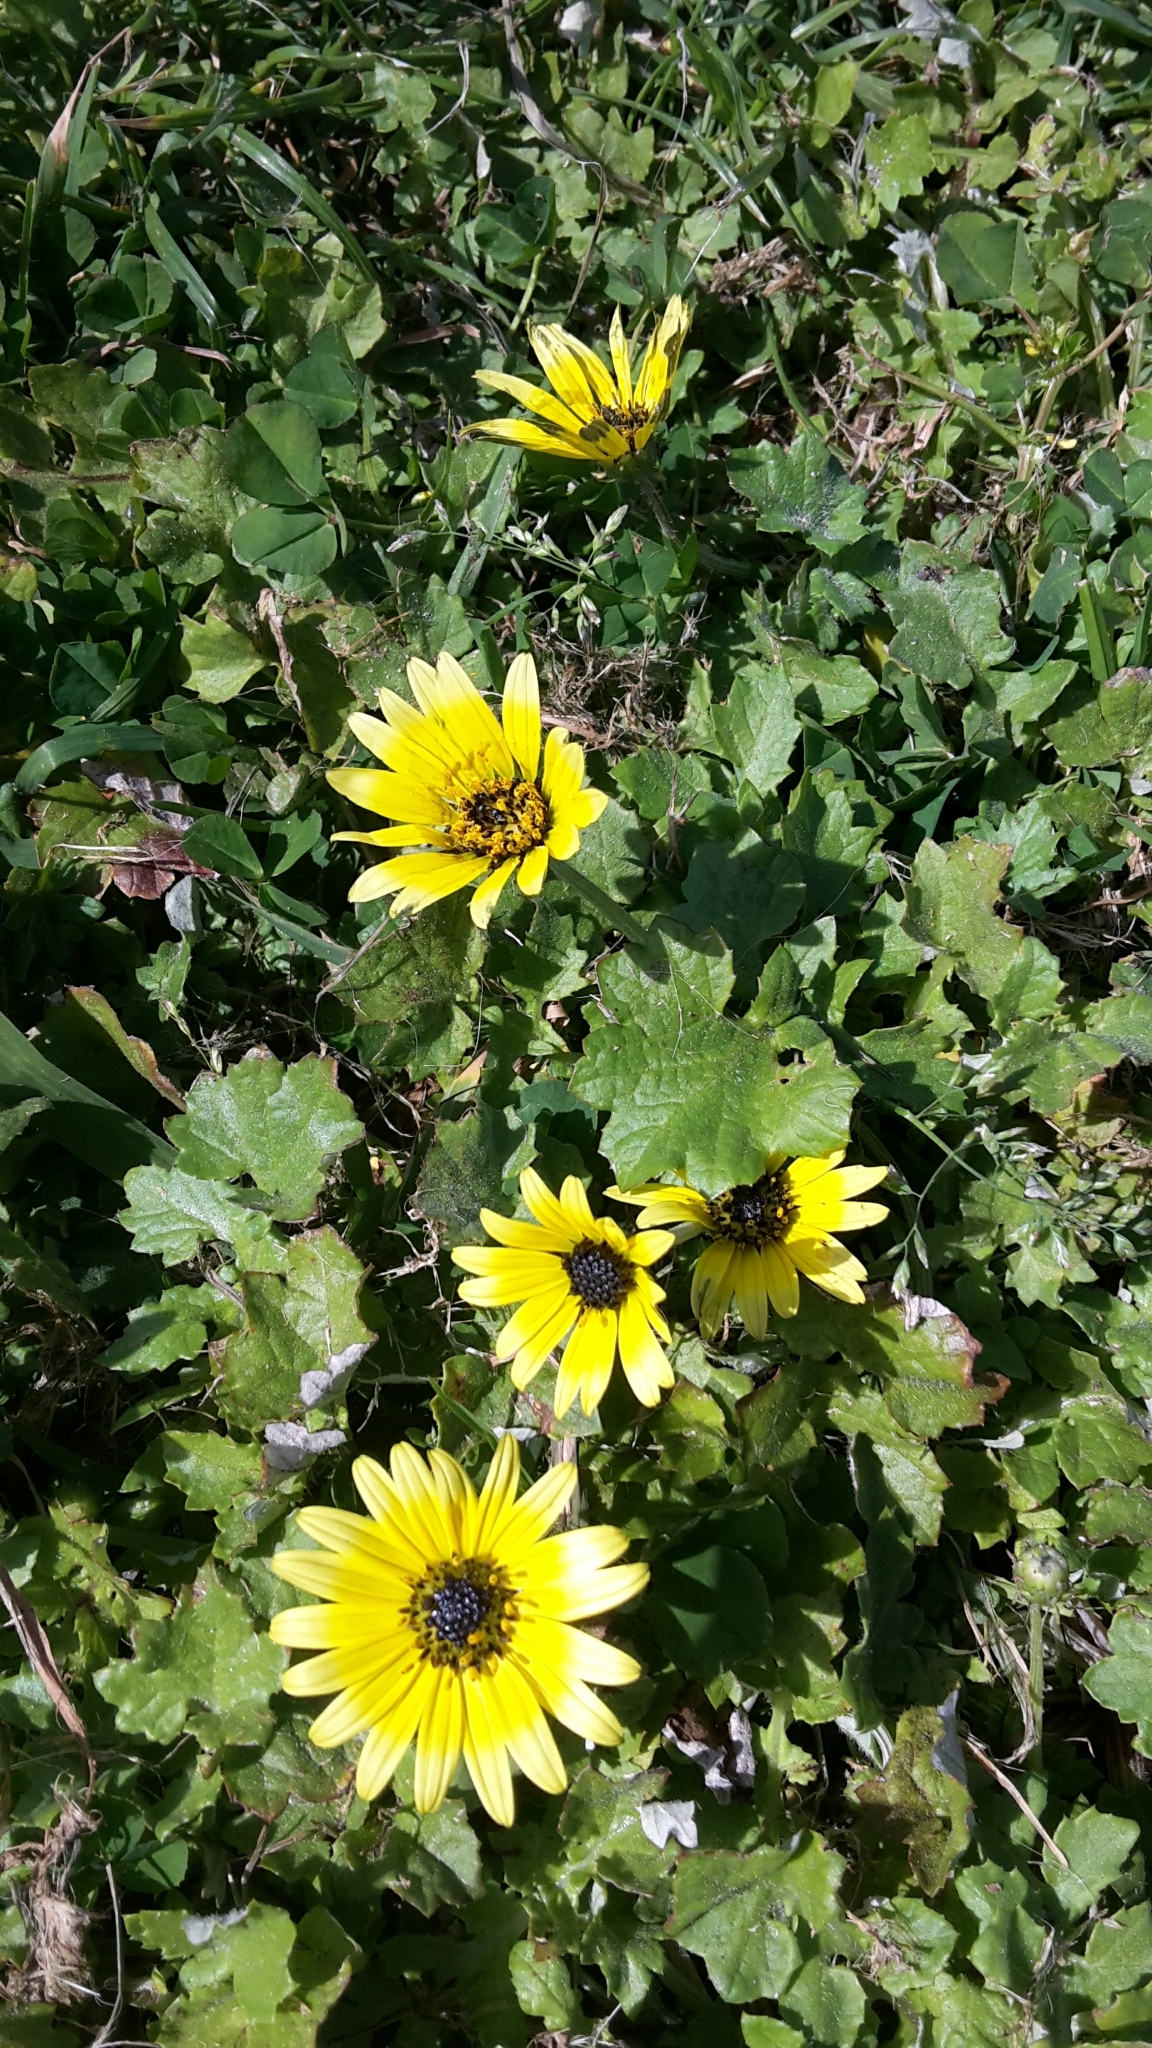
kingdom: Plantae
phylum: Tracheophyta
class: Magnoliopsida
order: Asterales
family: Asteraceae
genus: Arctotheca
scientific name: Arctotheca calendula
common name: Capeweed
